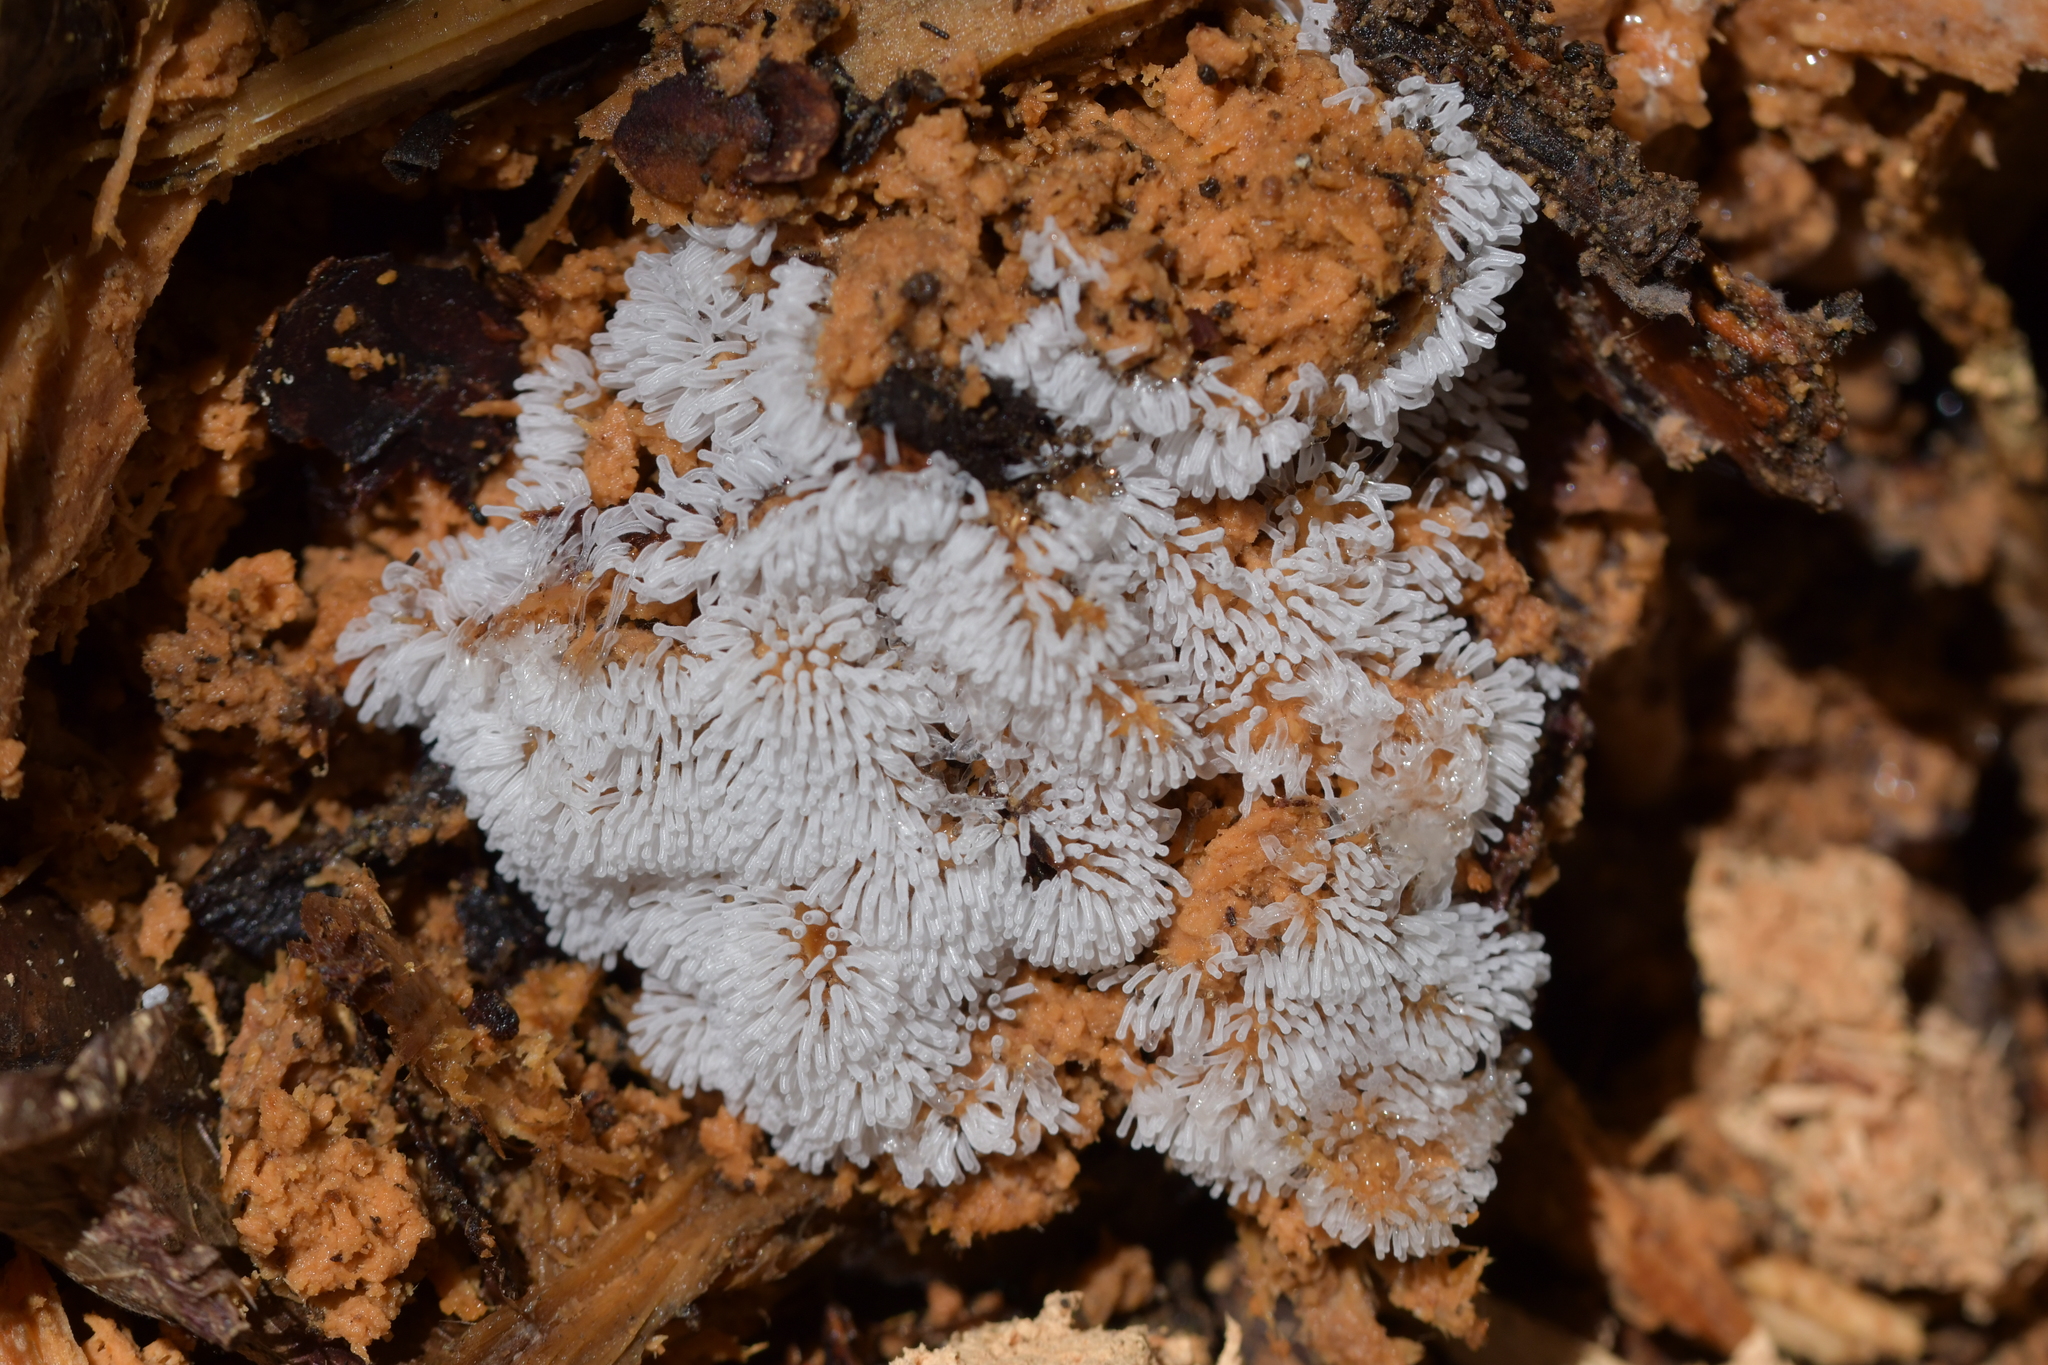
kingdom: Protozoa
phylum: Mycetozoa
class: Protosteliomycetes
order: Ceratiomyxales
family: Ceratiomyxaceae
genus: Ceratiomyxa
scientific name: Ceratiomyxa fruticulosa
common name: Honeycomb coral slime mold
